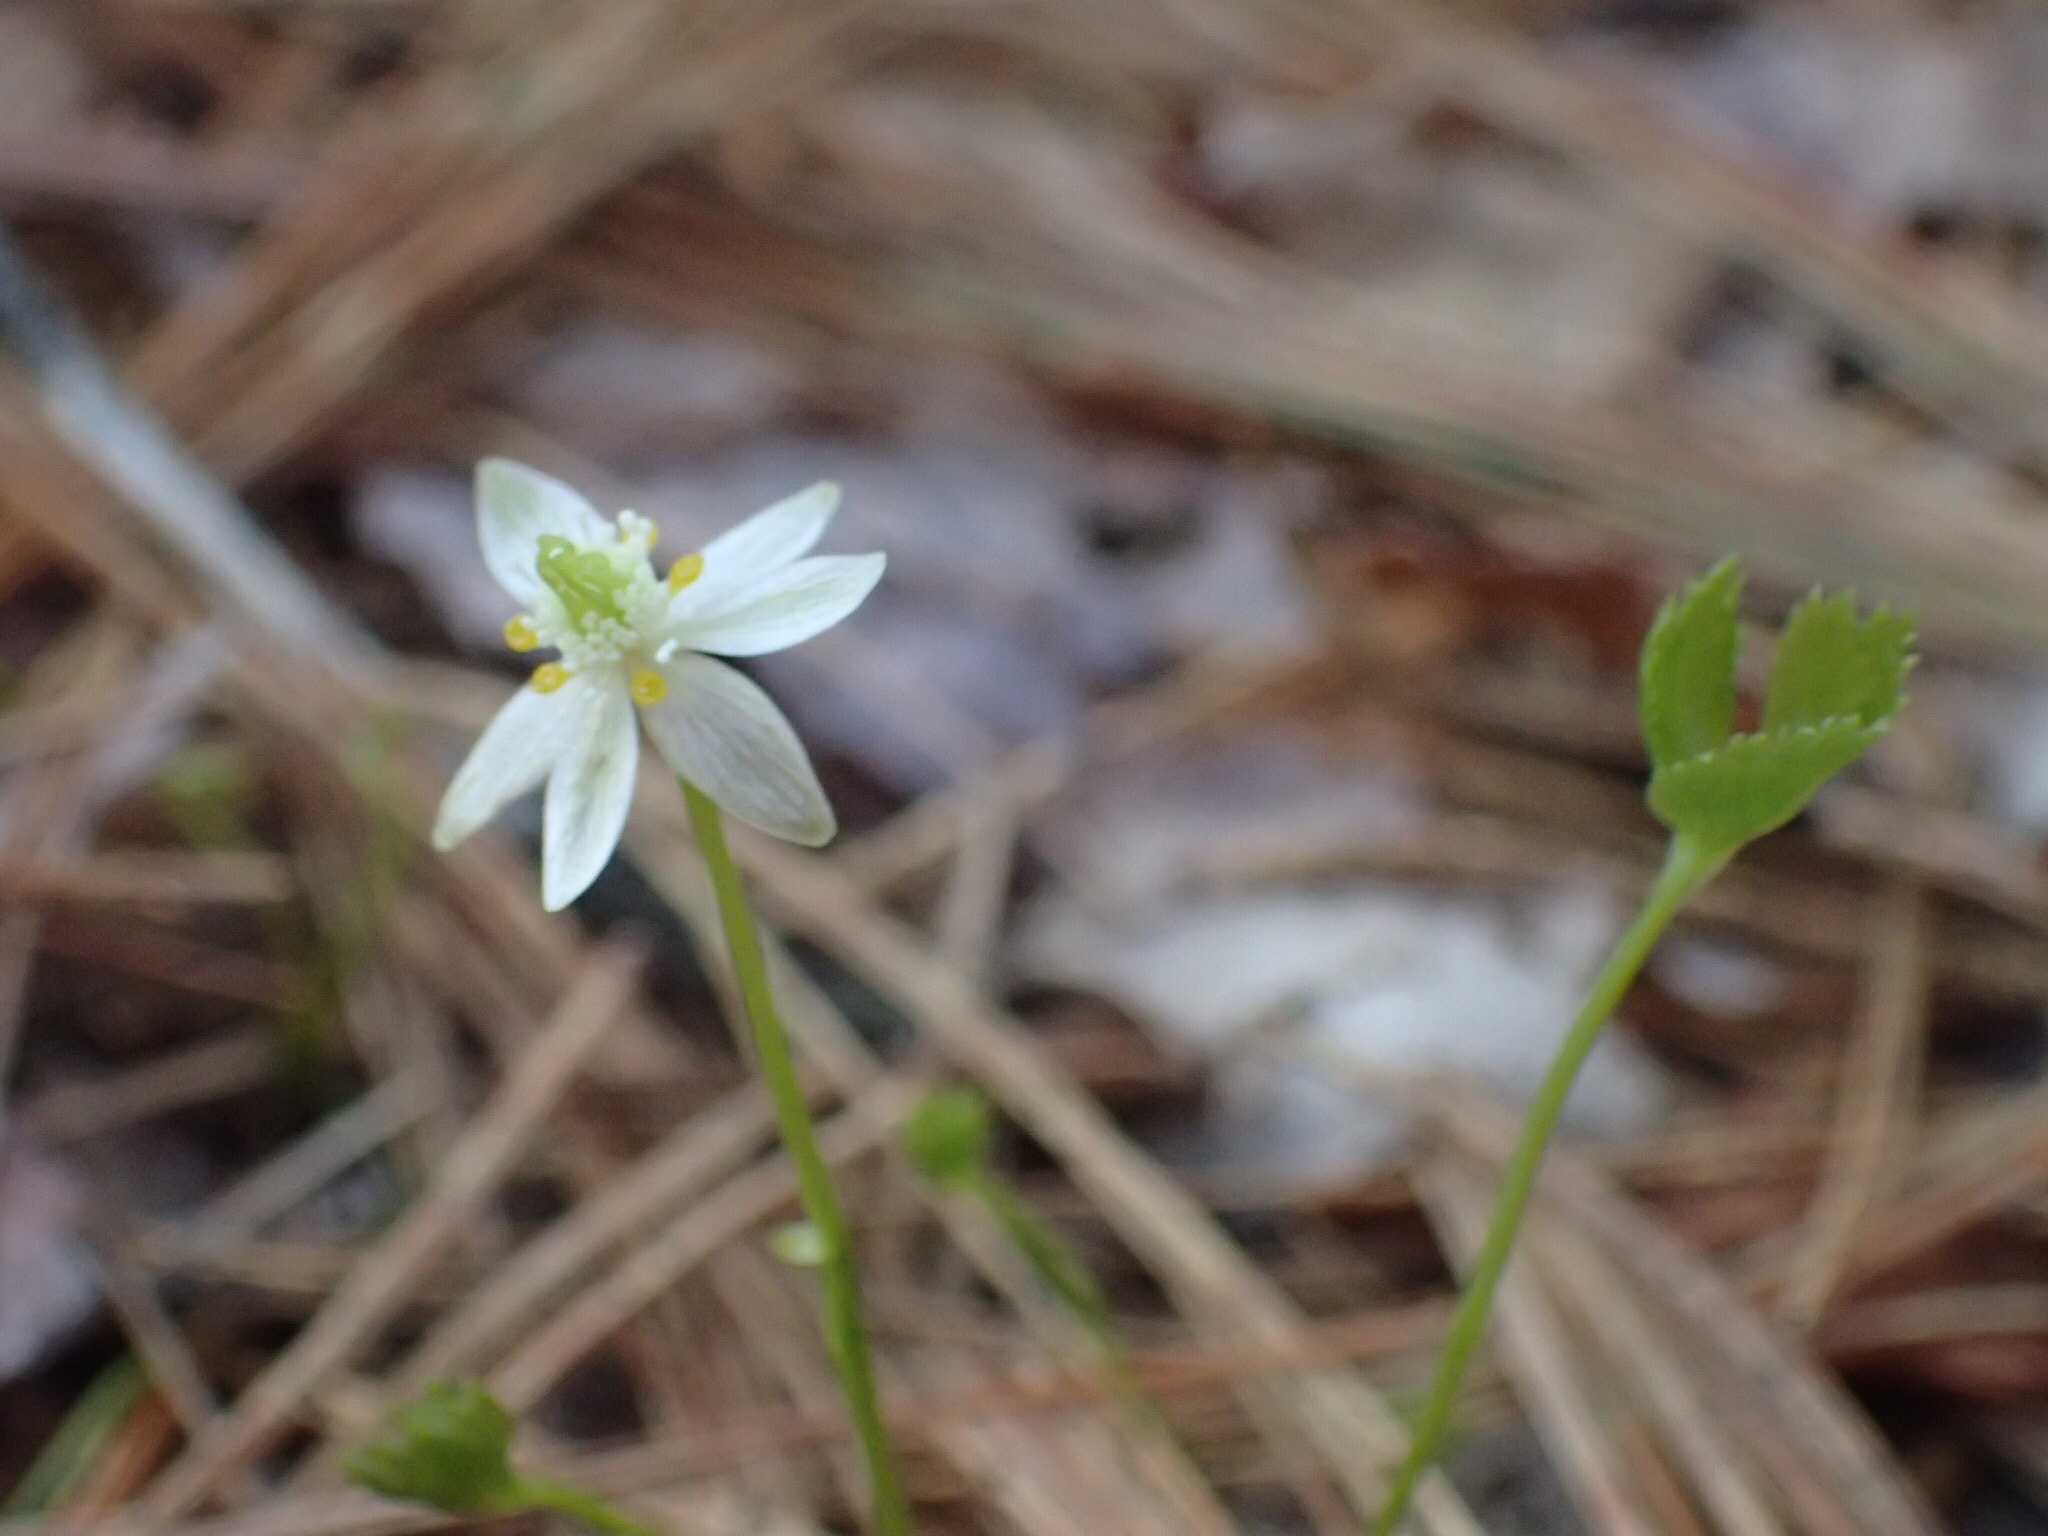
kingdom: Plantae
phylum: Tracheophyta
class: Magnoliopsida
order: Ranunculales
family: Ranunculaceae
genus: Coptis
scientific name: Coptis trifolia
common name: Canker-root
